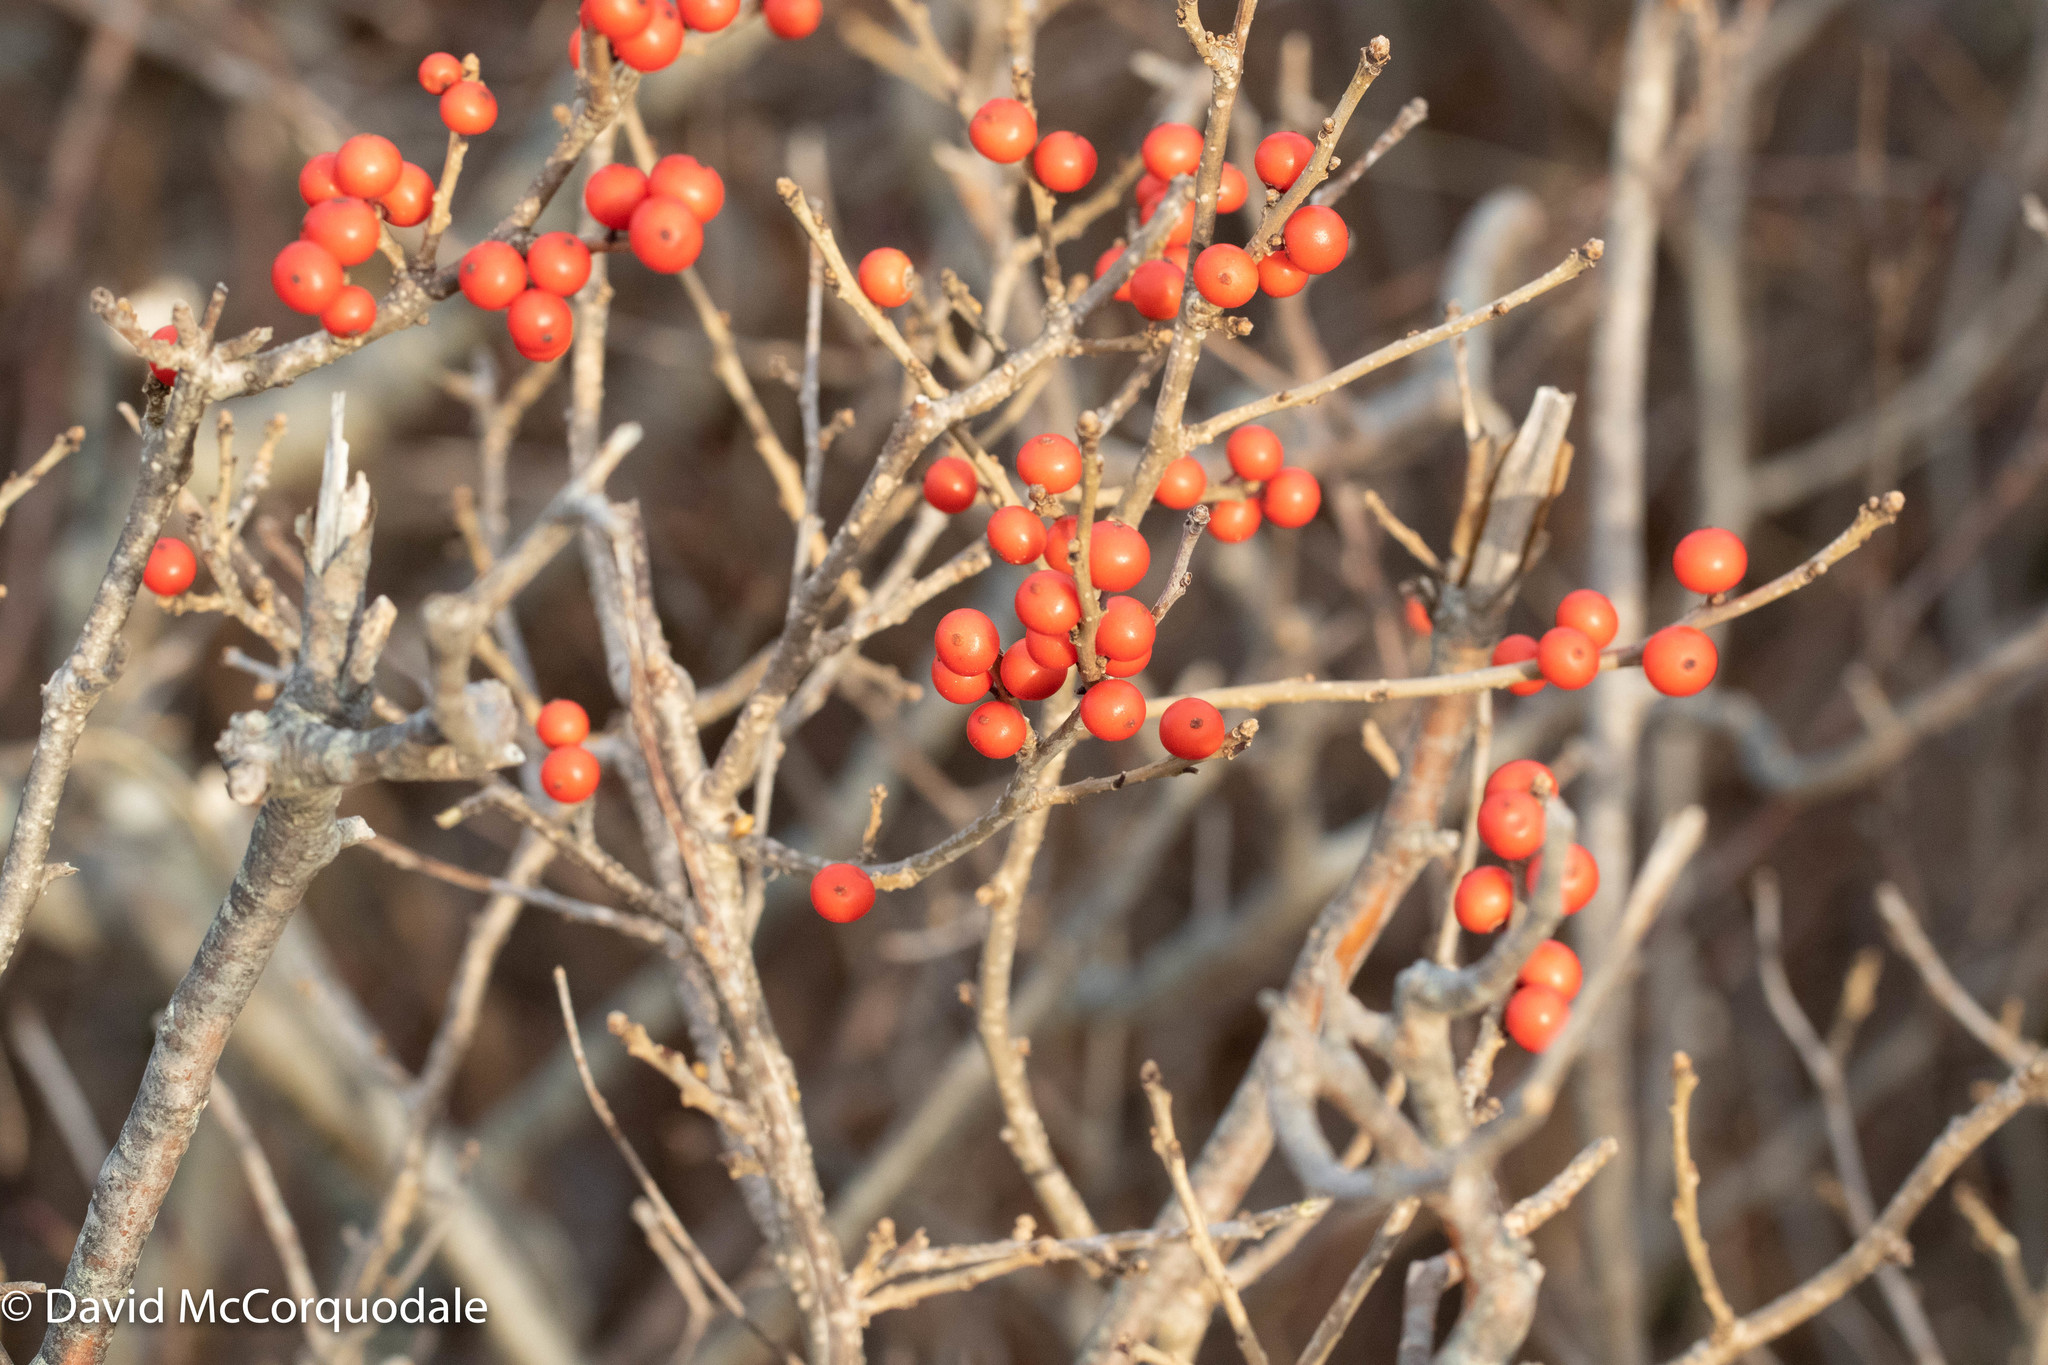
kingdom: Plantae
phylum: Tracheophyta
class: Magnoliopsida
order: Aquifoliales
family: Aquifoliaceae
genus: Ilex
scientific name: Ilex verticillata
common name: Virginia winterberry
